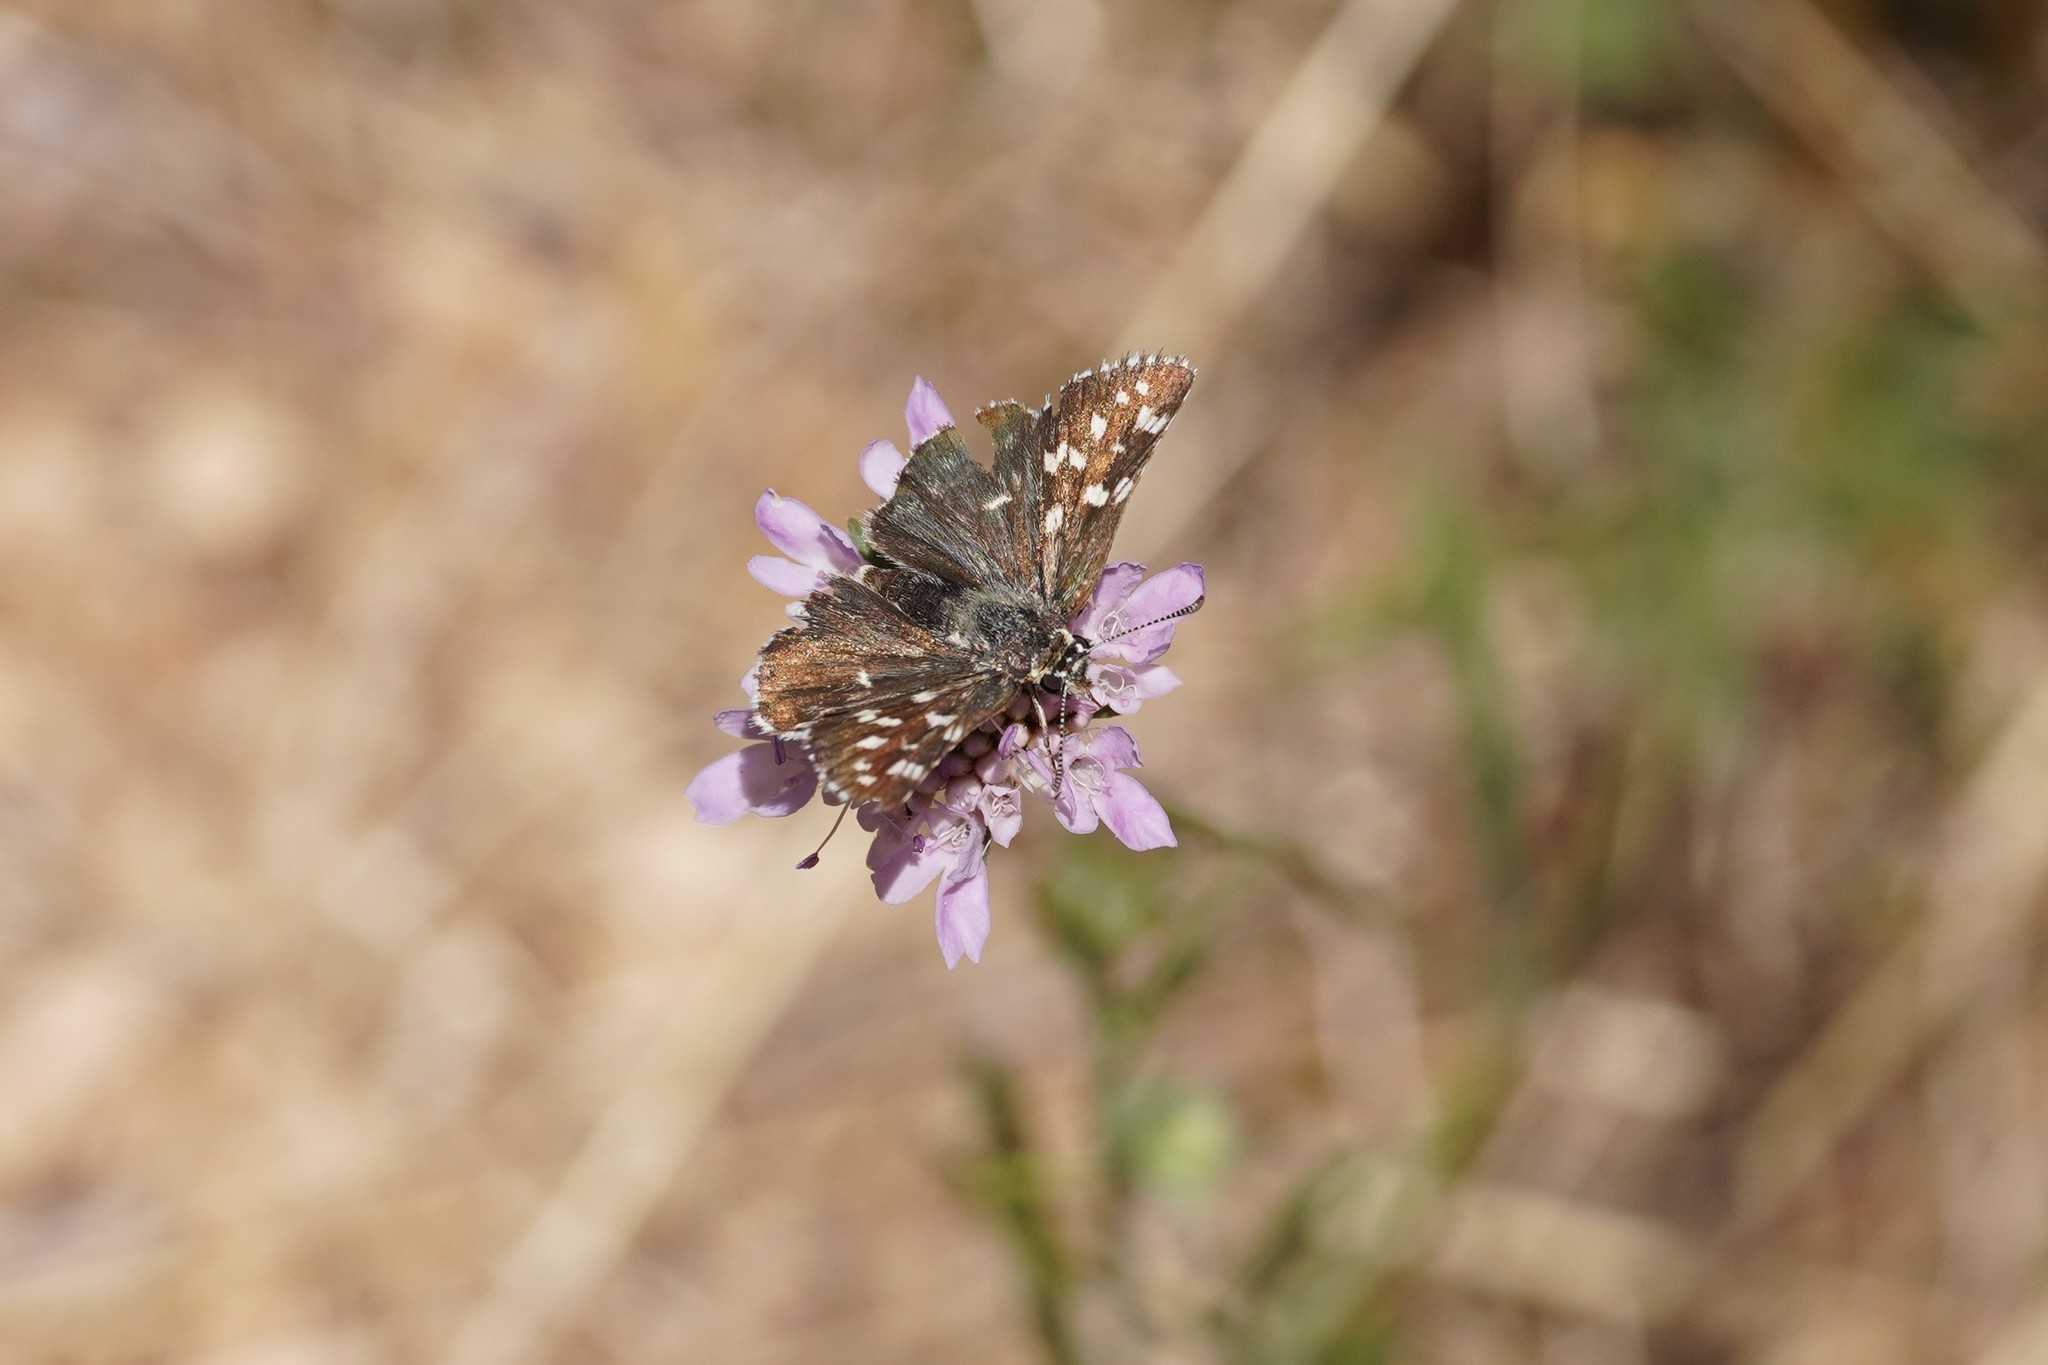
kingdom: Animalia
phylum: Arthropoda
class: Insecta
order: Lepidoptera
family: Hesperiidae
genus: Pyrgus
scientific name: Pyrgus malvoides
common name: Southern grizzled skipper
